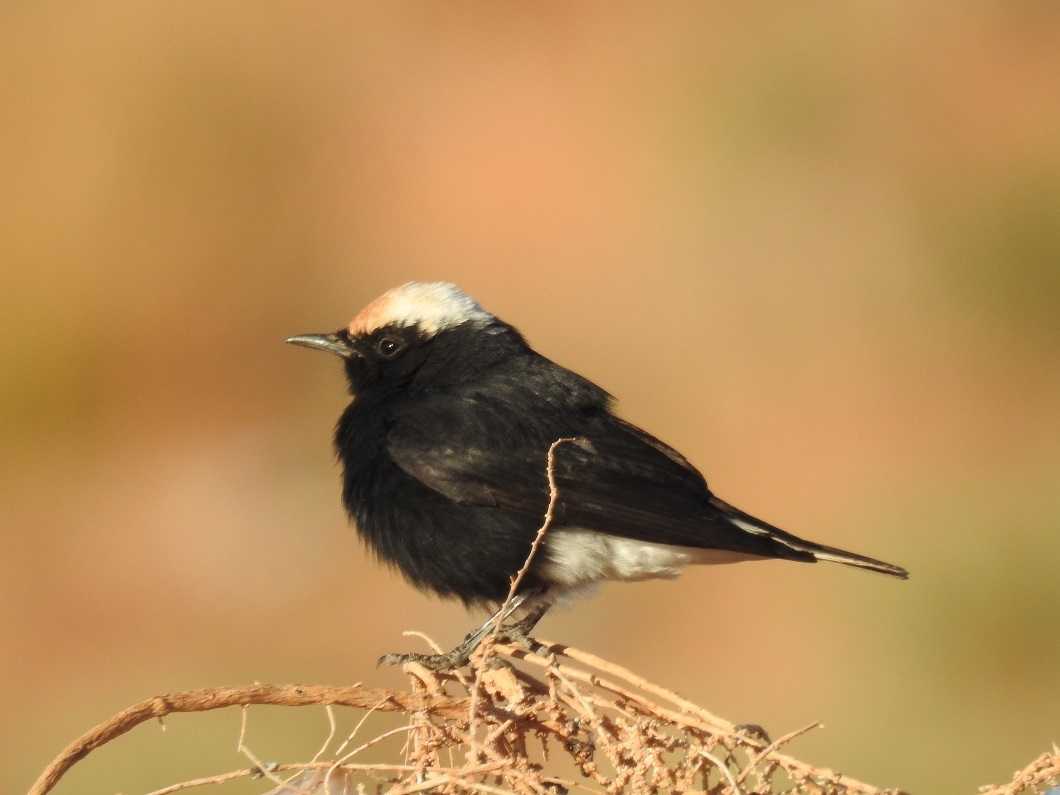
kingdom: Animalia
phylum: Chordata
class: Aves
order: Passeriformes
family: Muscicapidae
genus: Oenanthe
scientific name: Oenanthe leucopyga
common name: White-crowned wheatear
